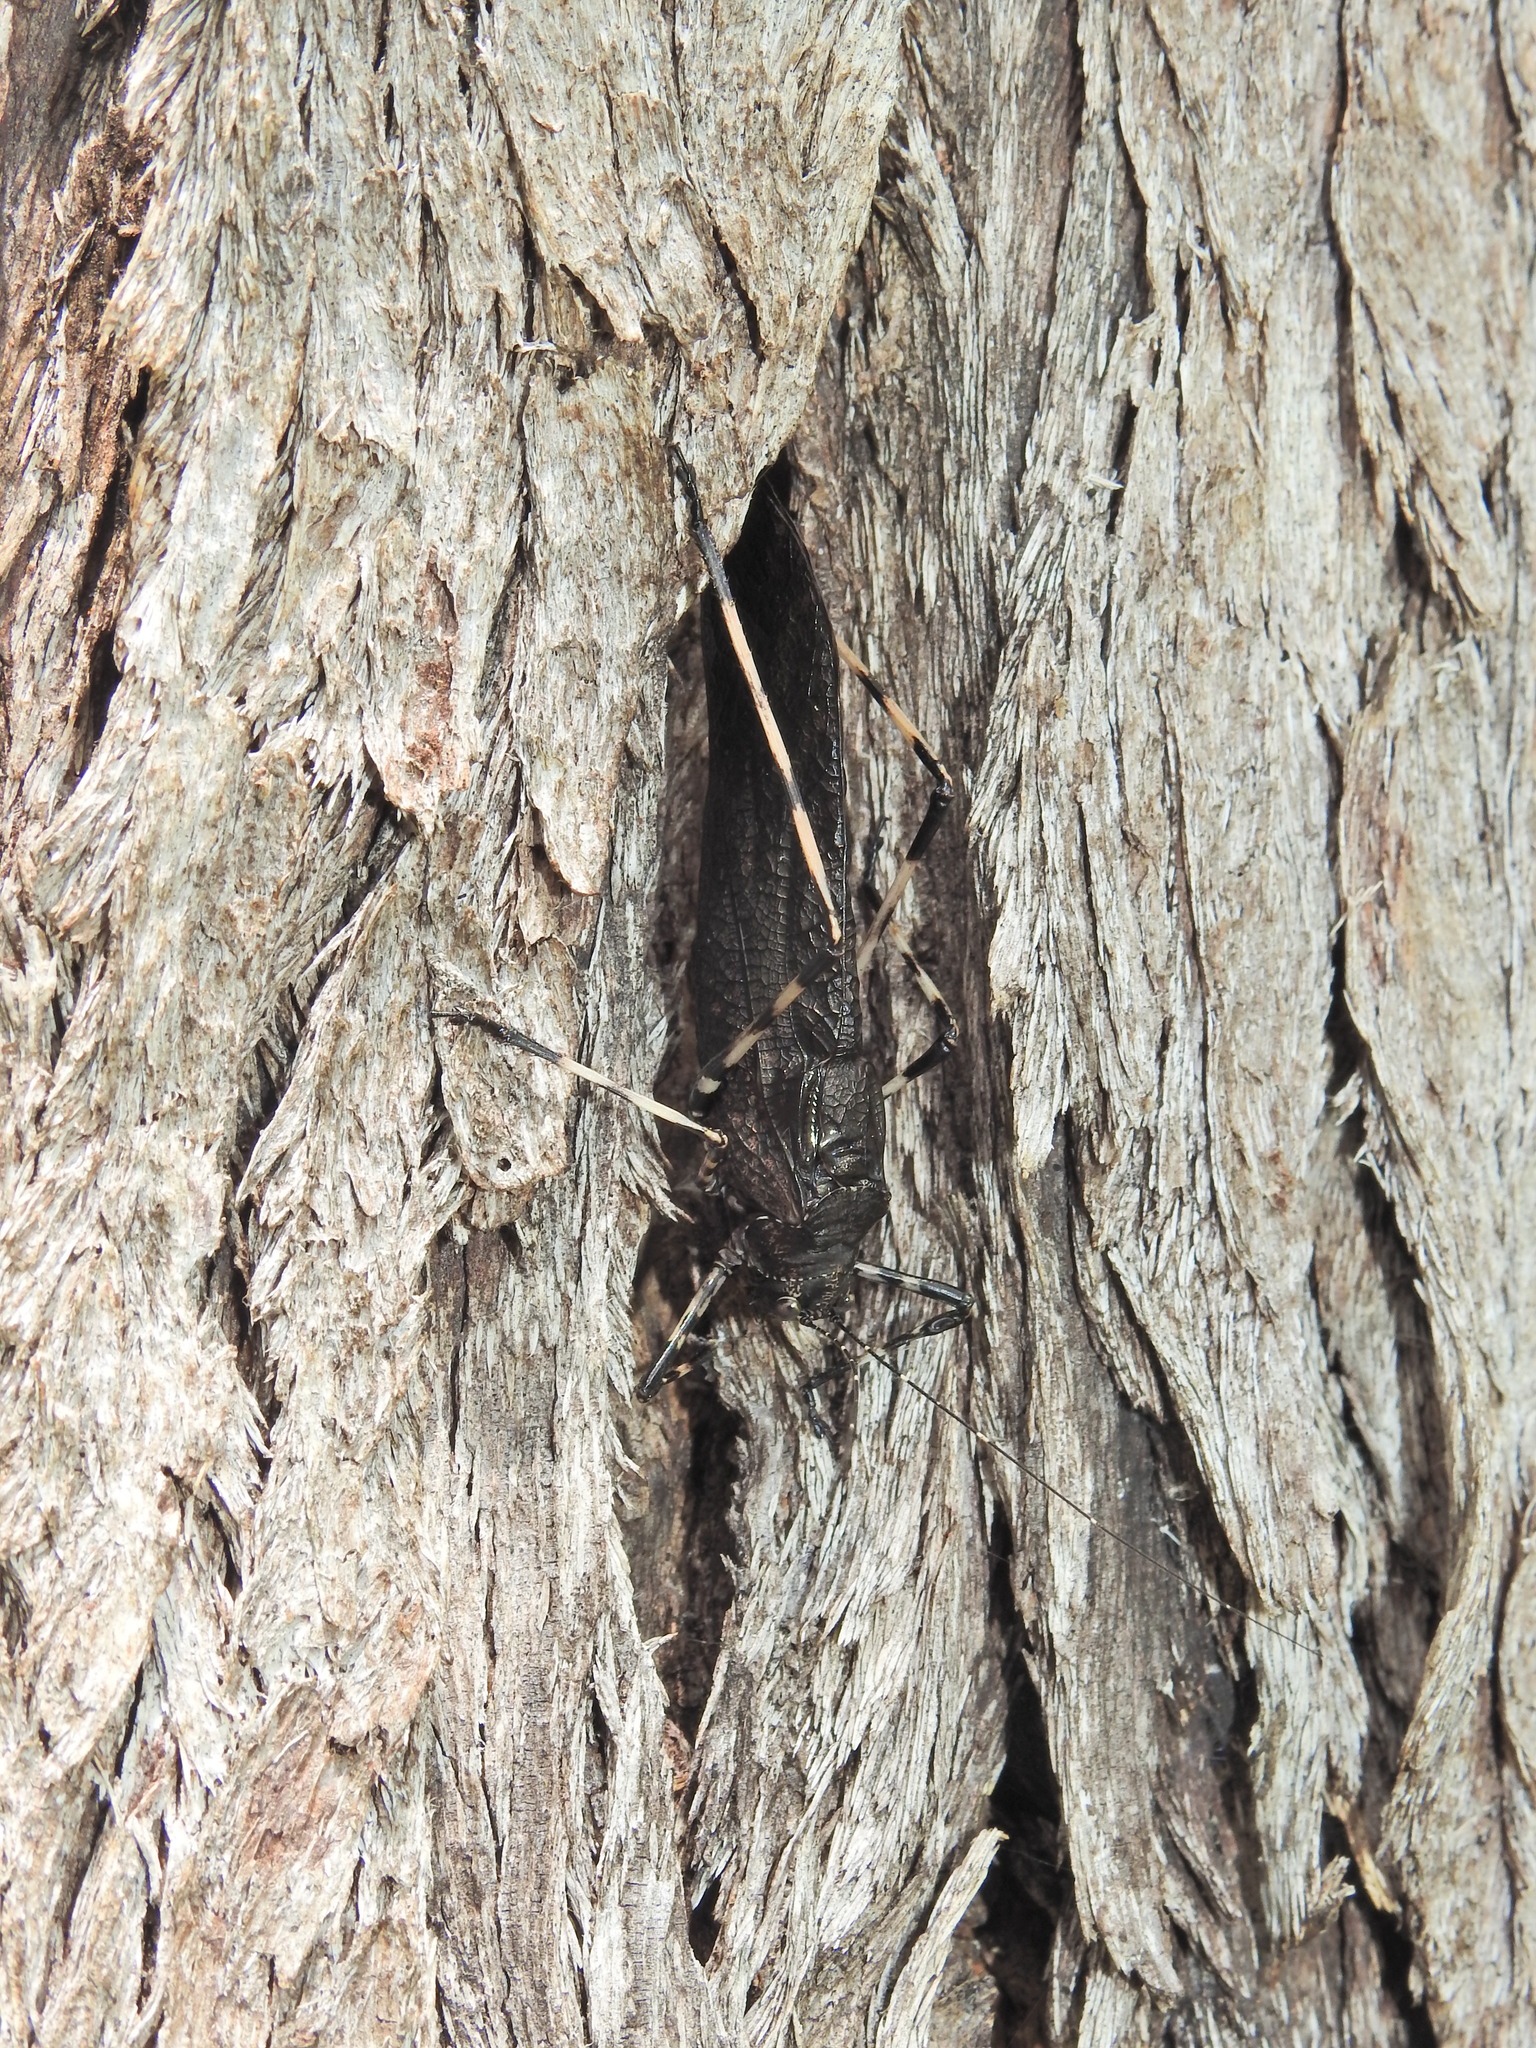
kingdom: Animalia
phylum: Arthropoda
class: Insecta
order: Orthoptera
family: Tettigoniidae
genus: Acripeza
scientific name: Acripeza reticulata
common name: Mountain katydid
